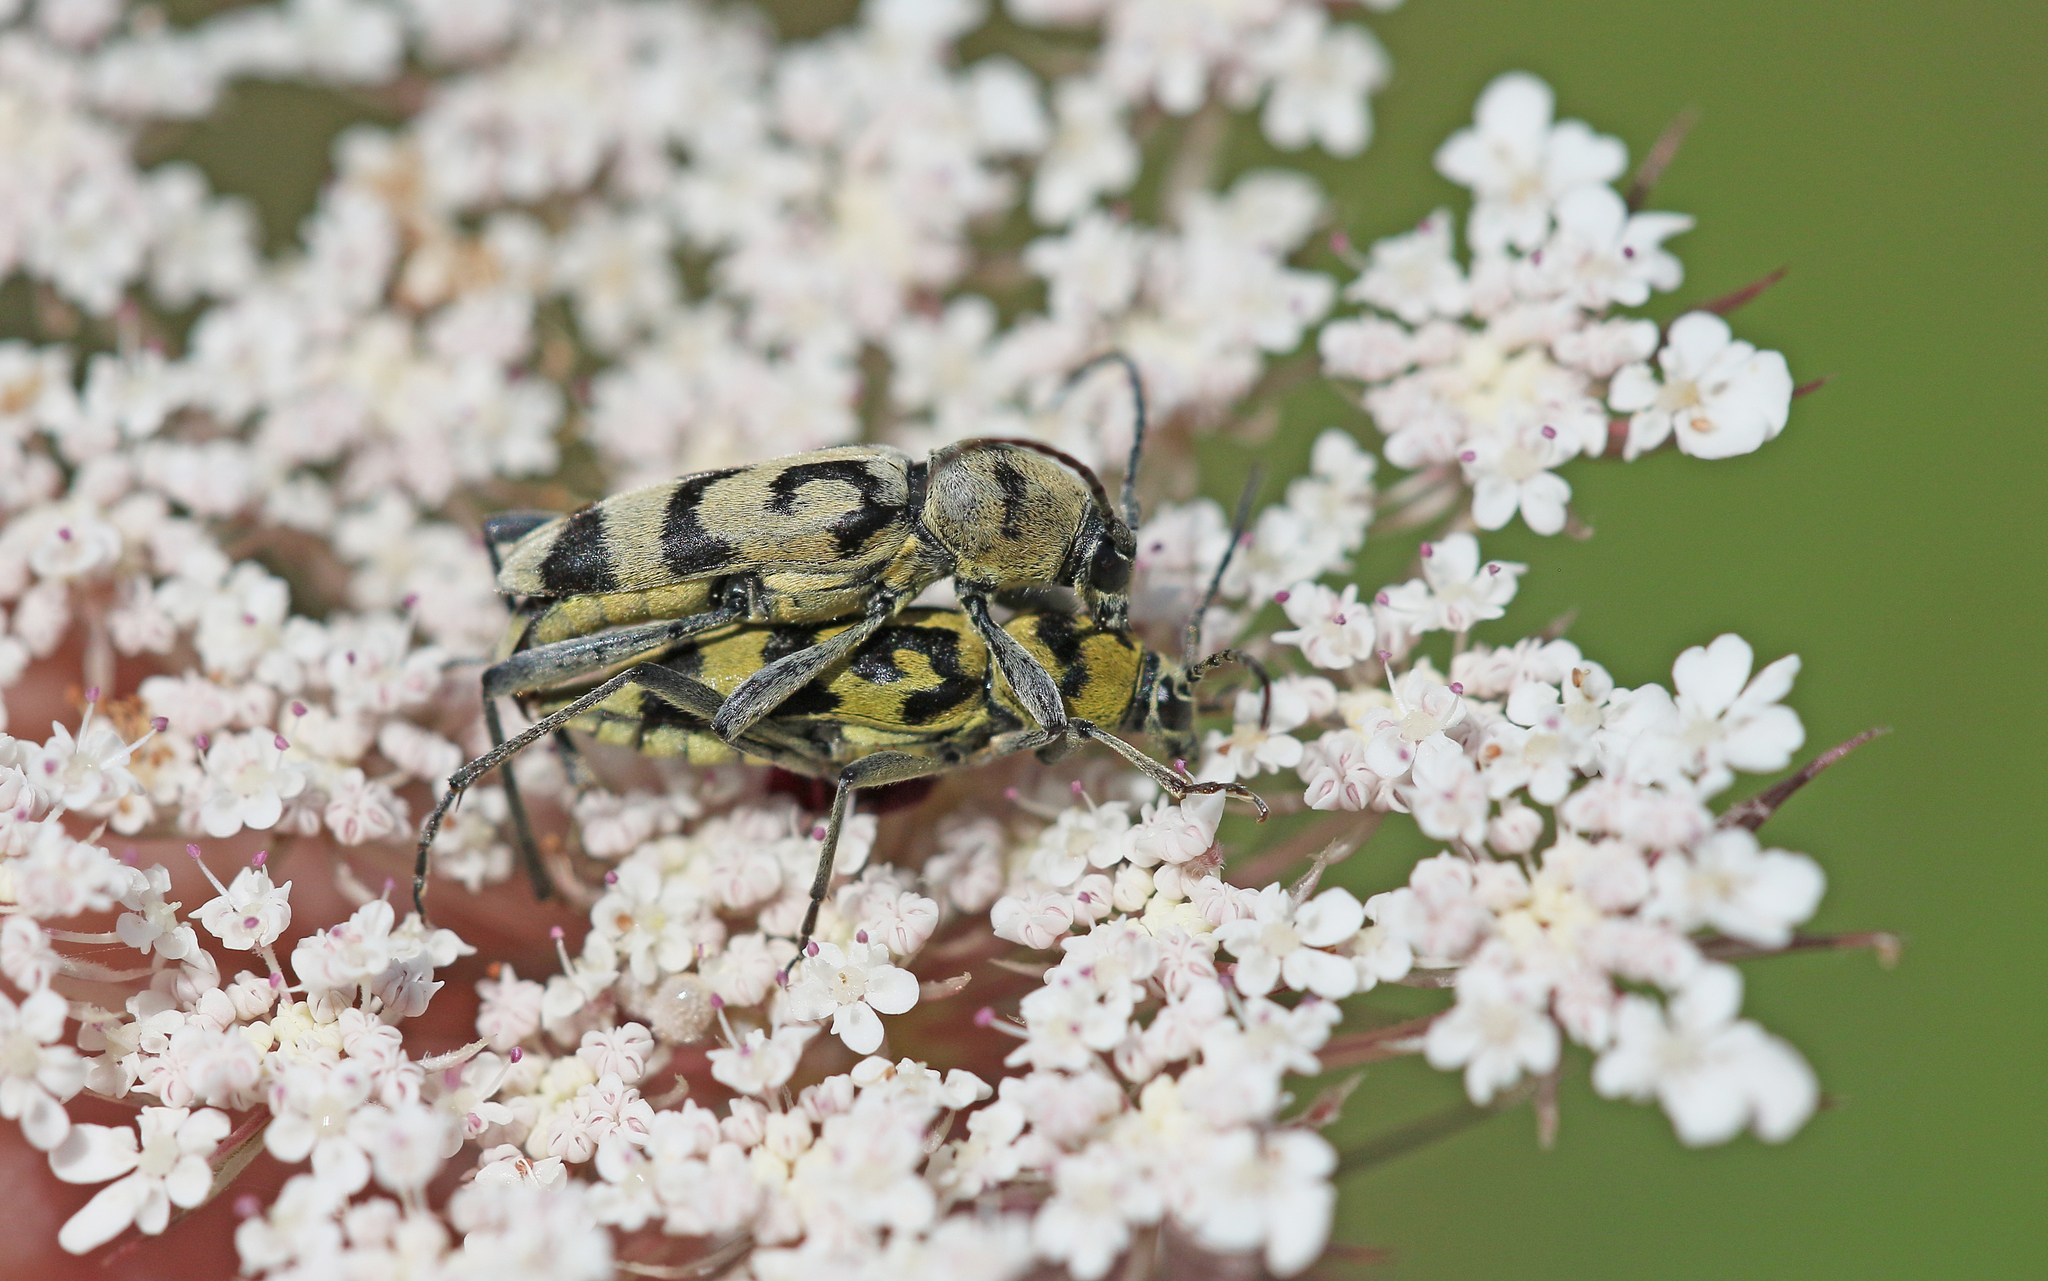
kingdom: Animalia
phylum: Arthropoda
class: Insecta
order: Coleoptera
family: Cerambycidae
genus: Chlorophorus
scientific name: Chlorophorus varius
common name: Grape wood borer
